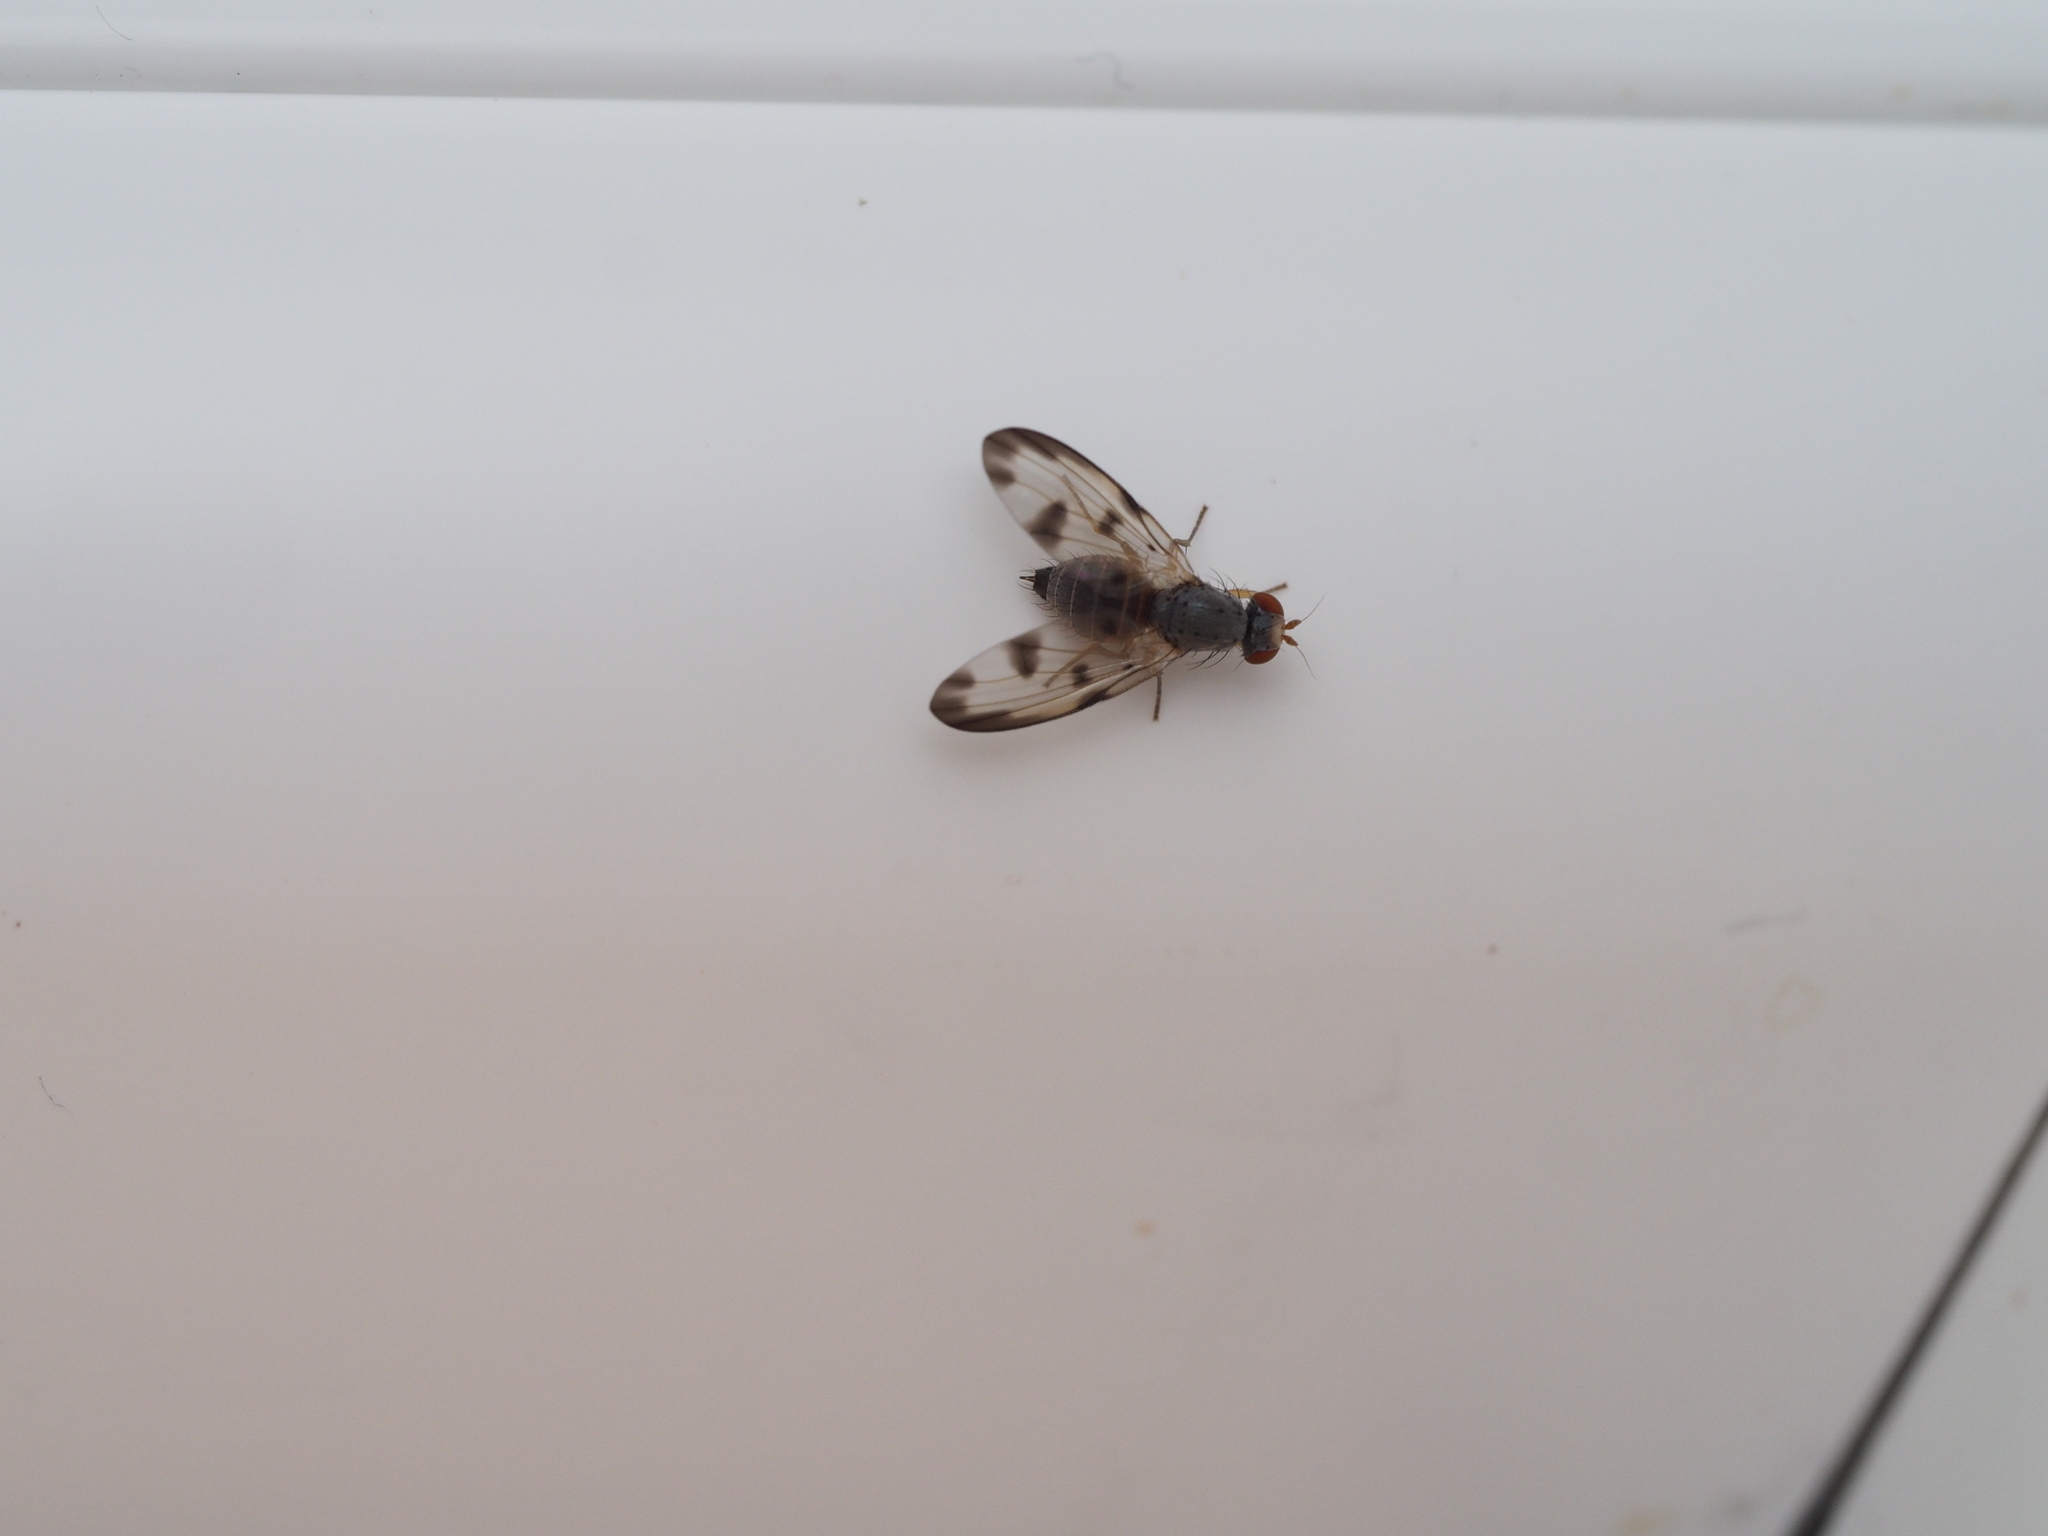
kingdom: Animalia
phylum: Arthropoda
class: Insecta
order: Diptera
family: Pallopteridae
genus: Palloptera
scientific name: Palloptera umbellatarum
